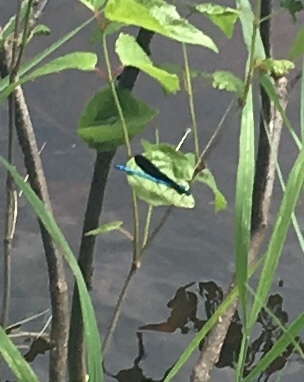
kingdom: Animalia
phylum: Arthropoda
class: Insecta
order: Odonata
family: Calopterygidae
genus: Calopteryx
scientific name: Calopteryx maculata
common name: Ebony jewelwing
